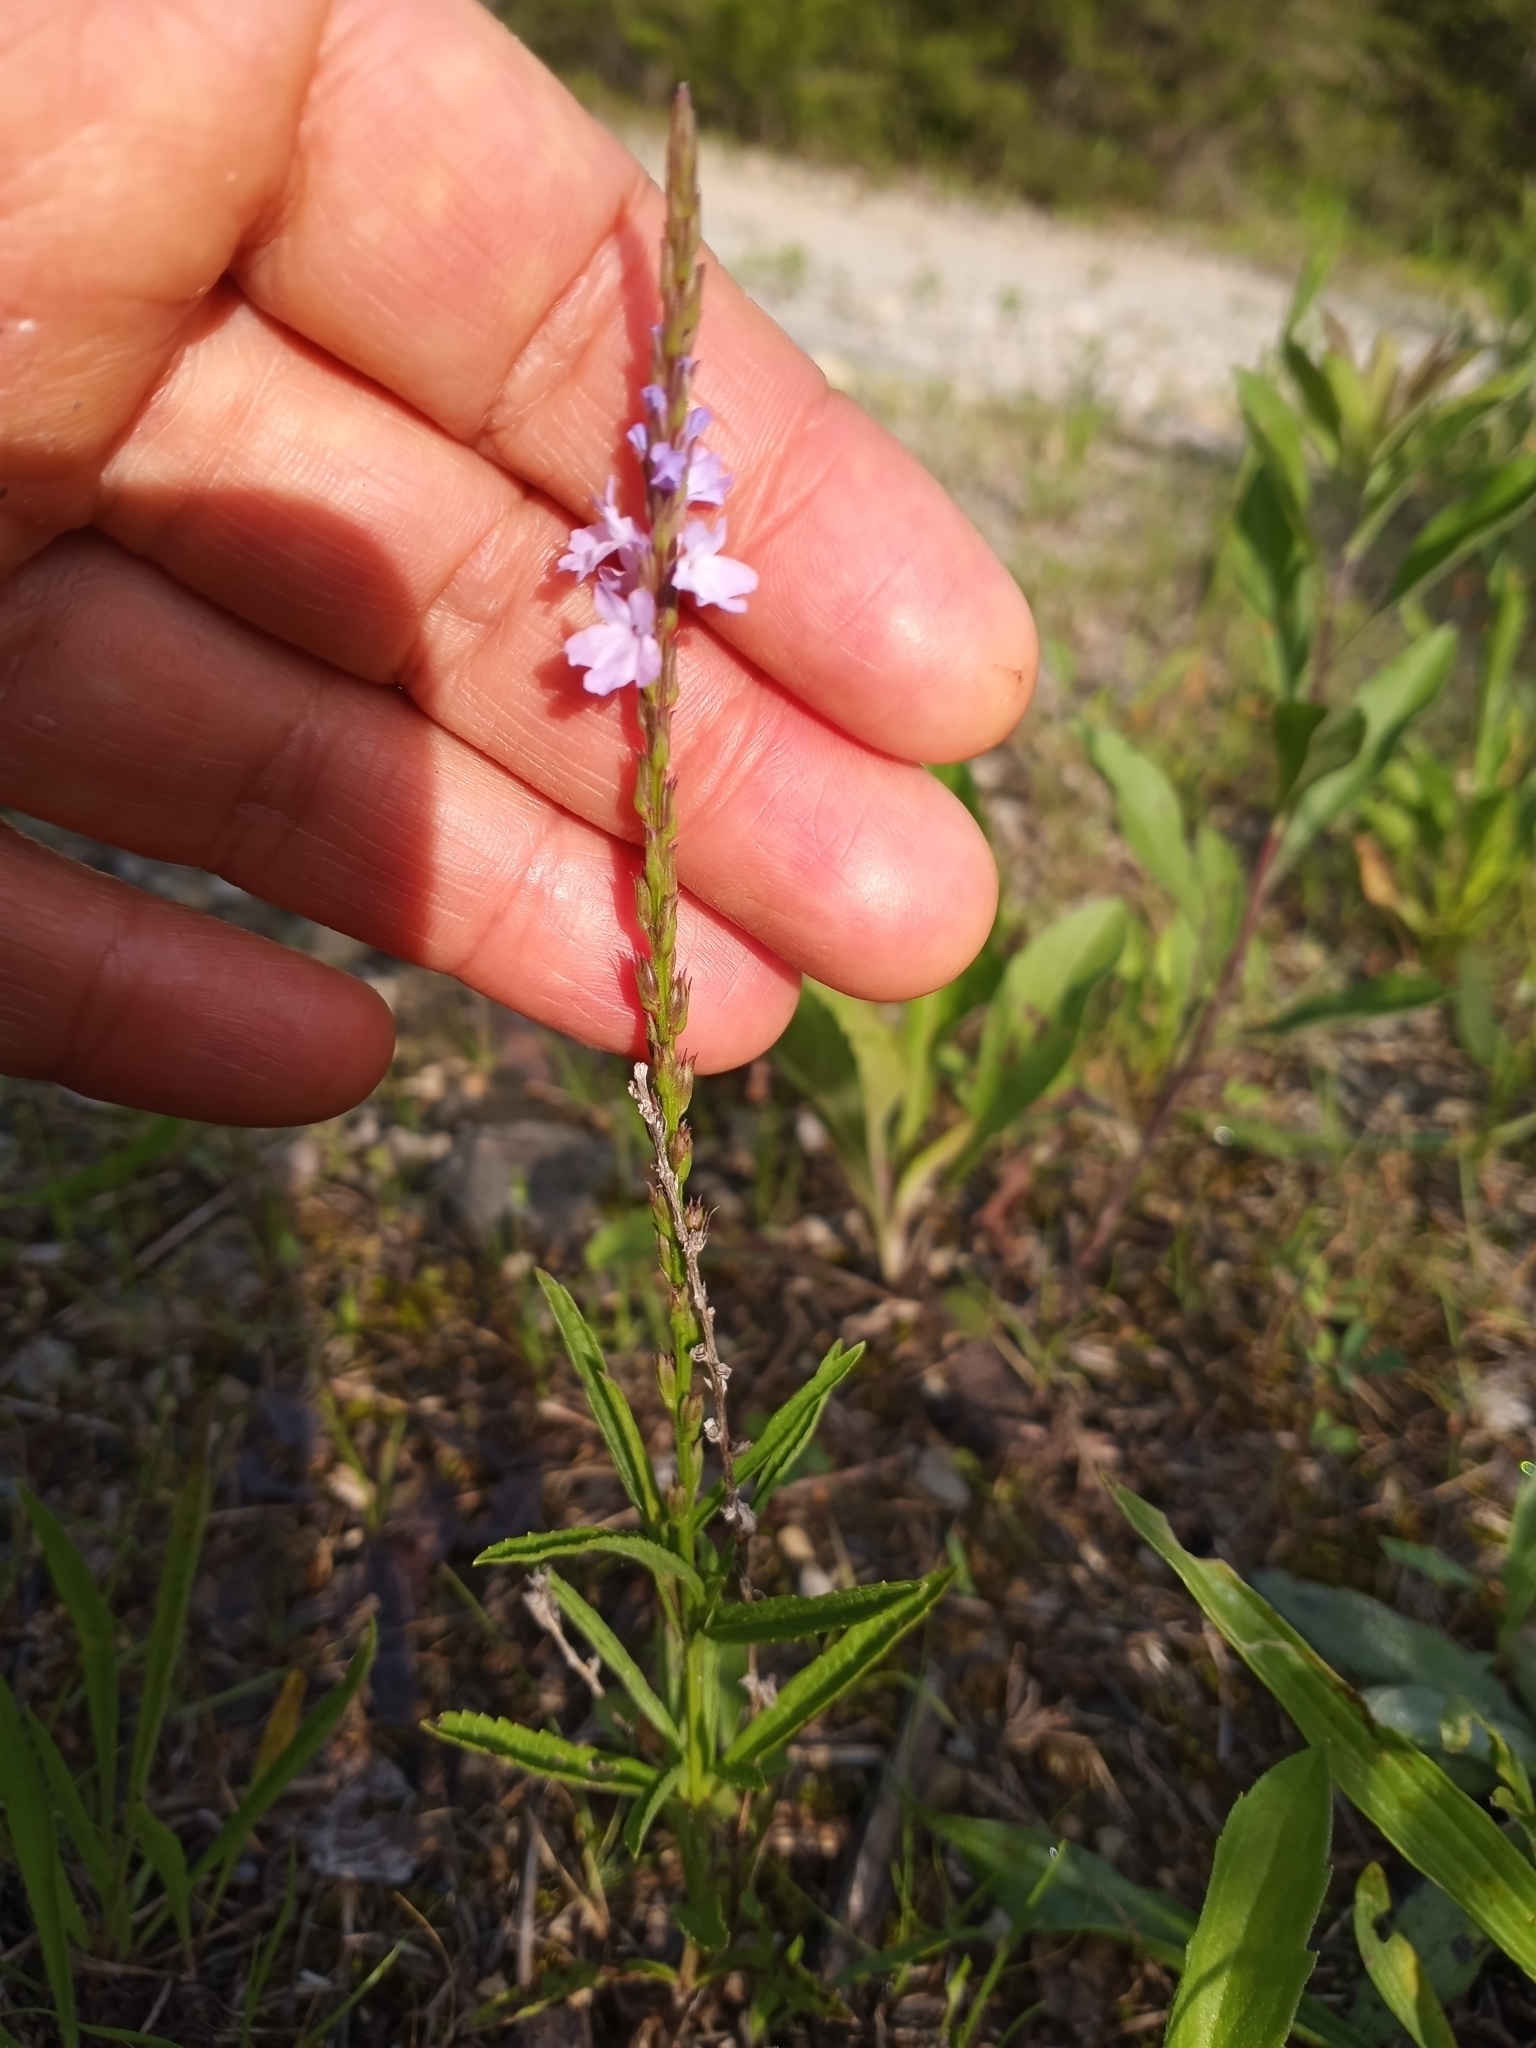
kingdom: Plantae
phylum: Tracheophyta
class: Magnoliopsida
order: Lamiales
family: Verbenaceae
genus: Verbena
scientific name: Verbena simplex
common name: Narrow-leaf vervain
